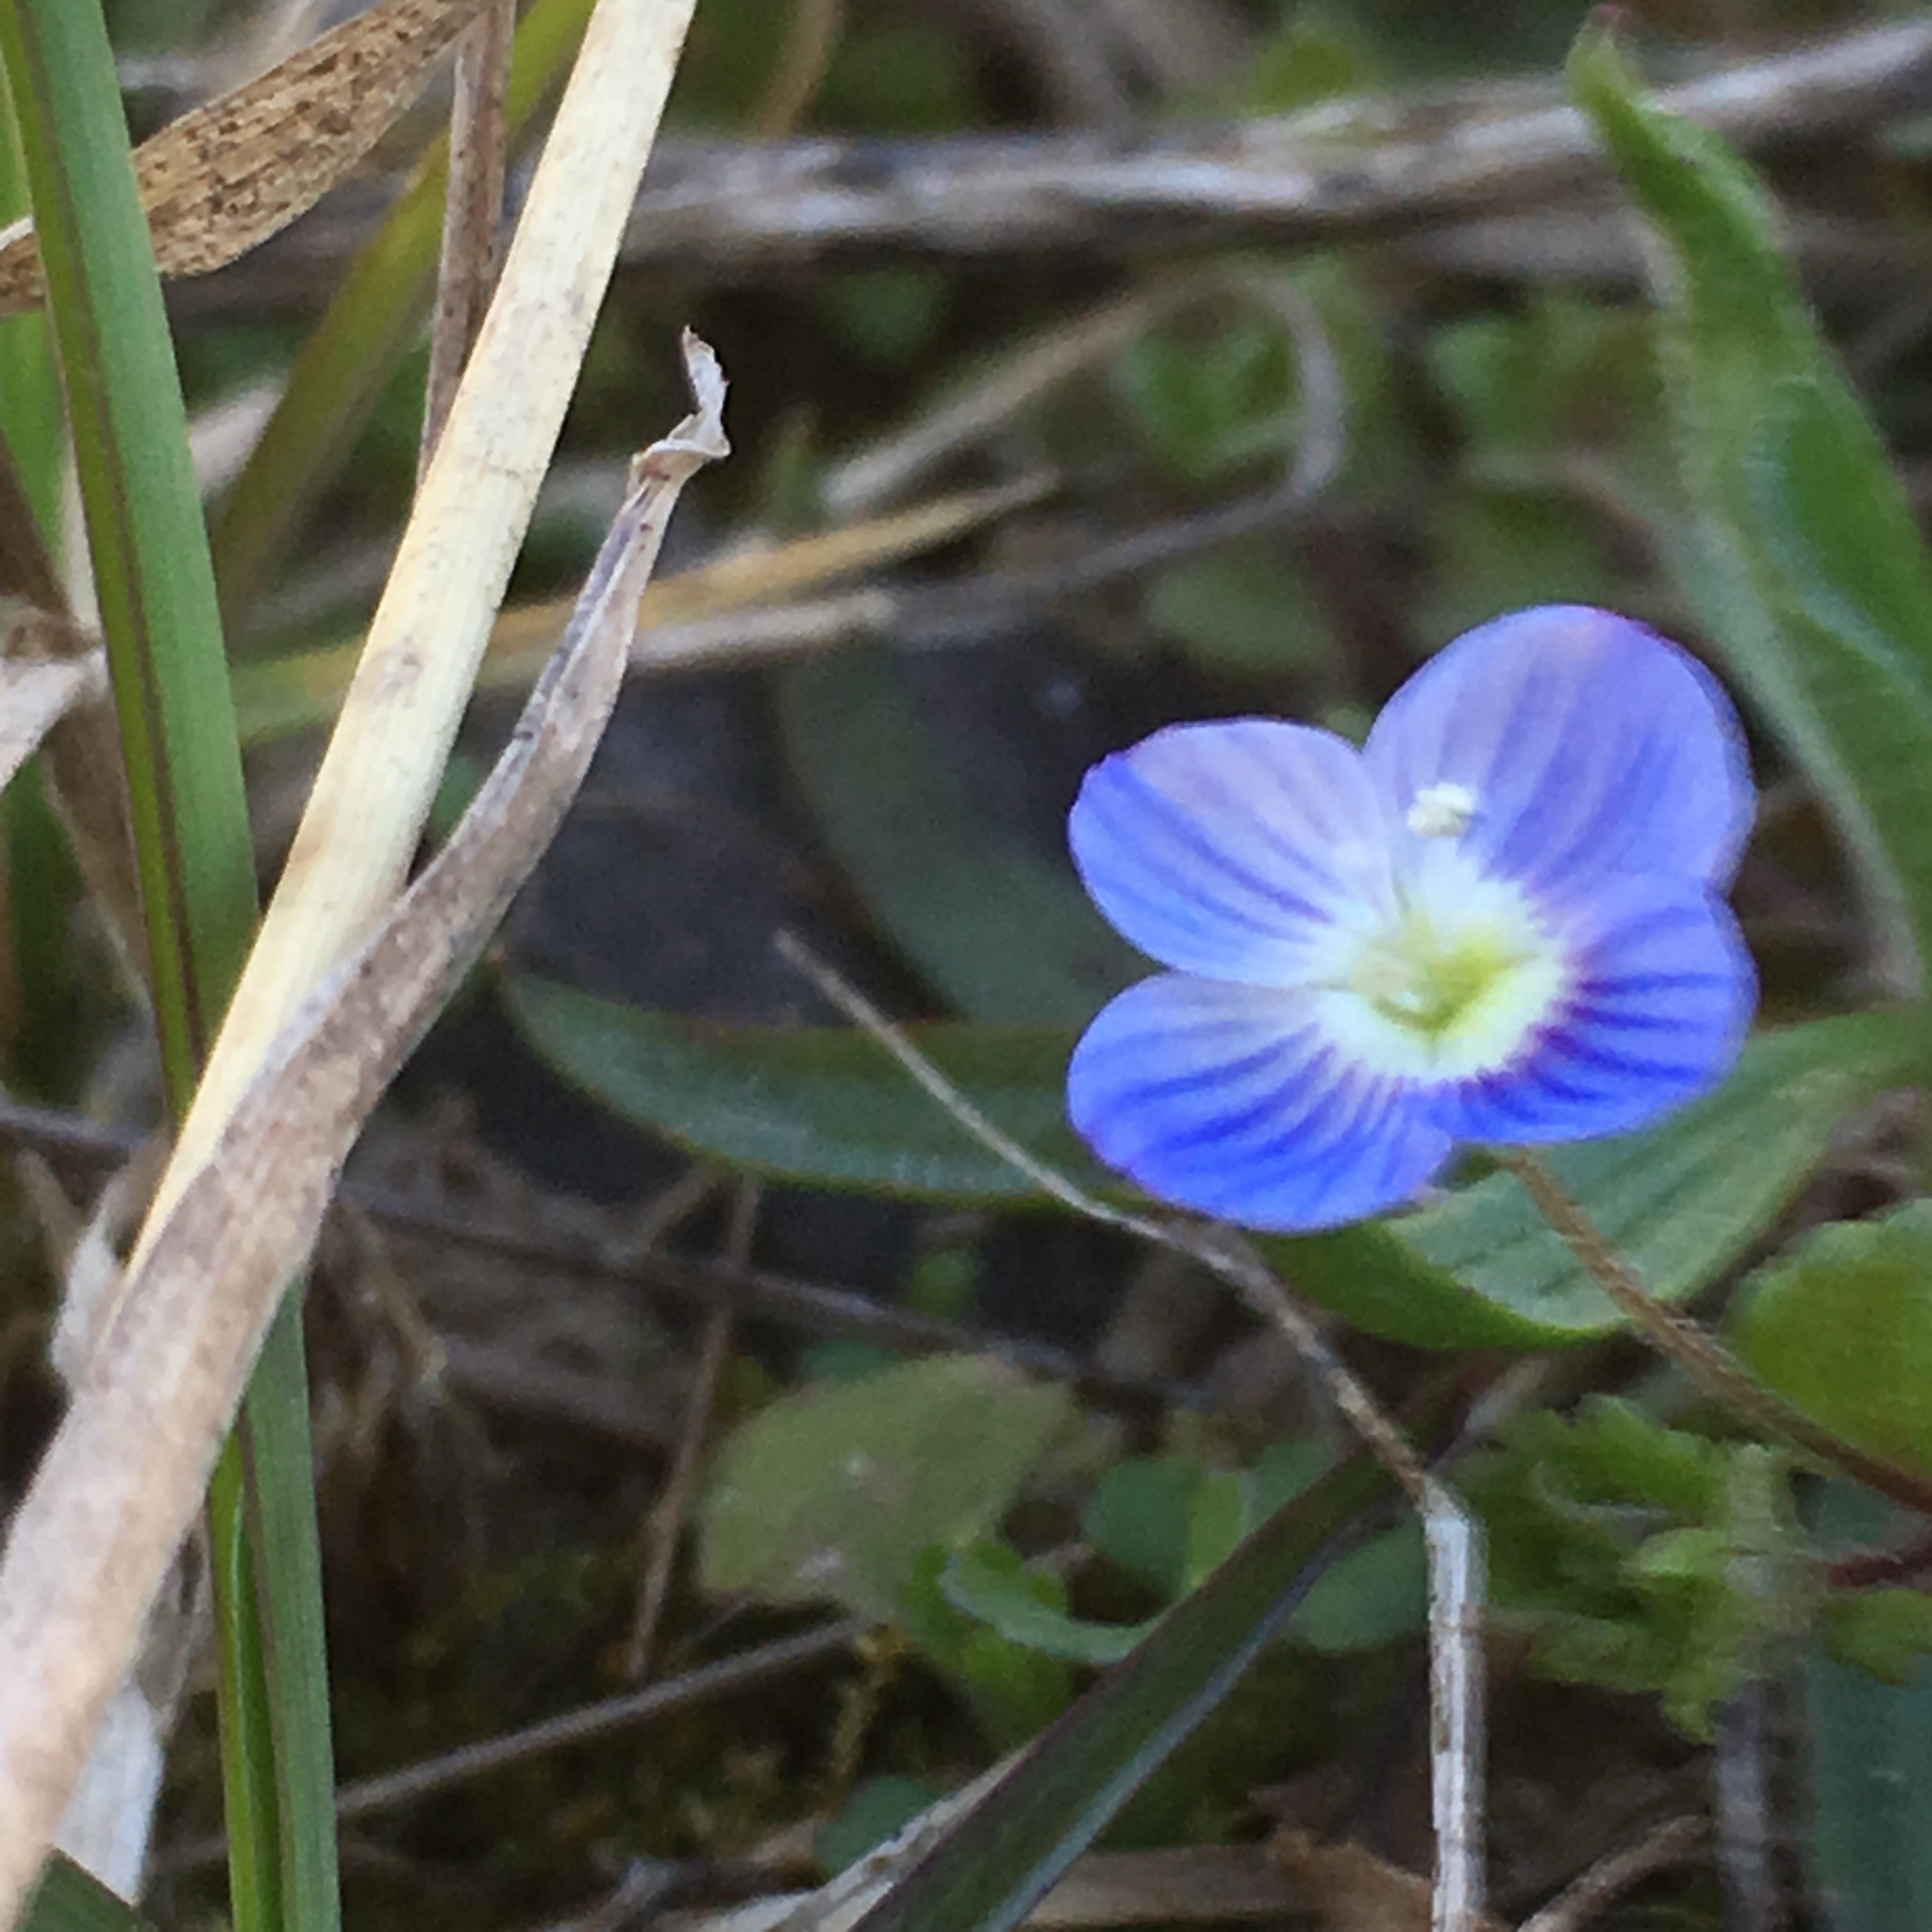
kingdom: Plantae
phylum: Tracheophyta
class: Magnoliopsida
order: Lamiales
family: Plantaginaceae
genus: Veronica
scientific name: Veronica persica
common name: Common field-speedwell
